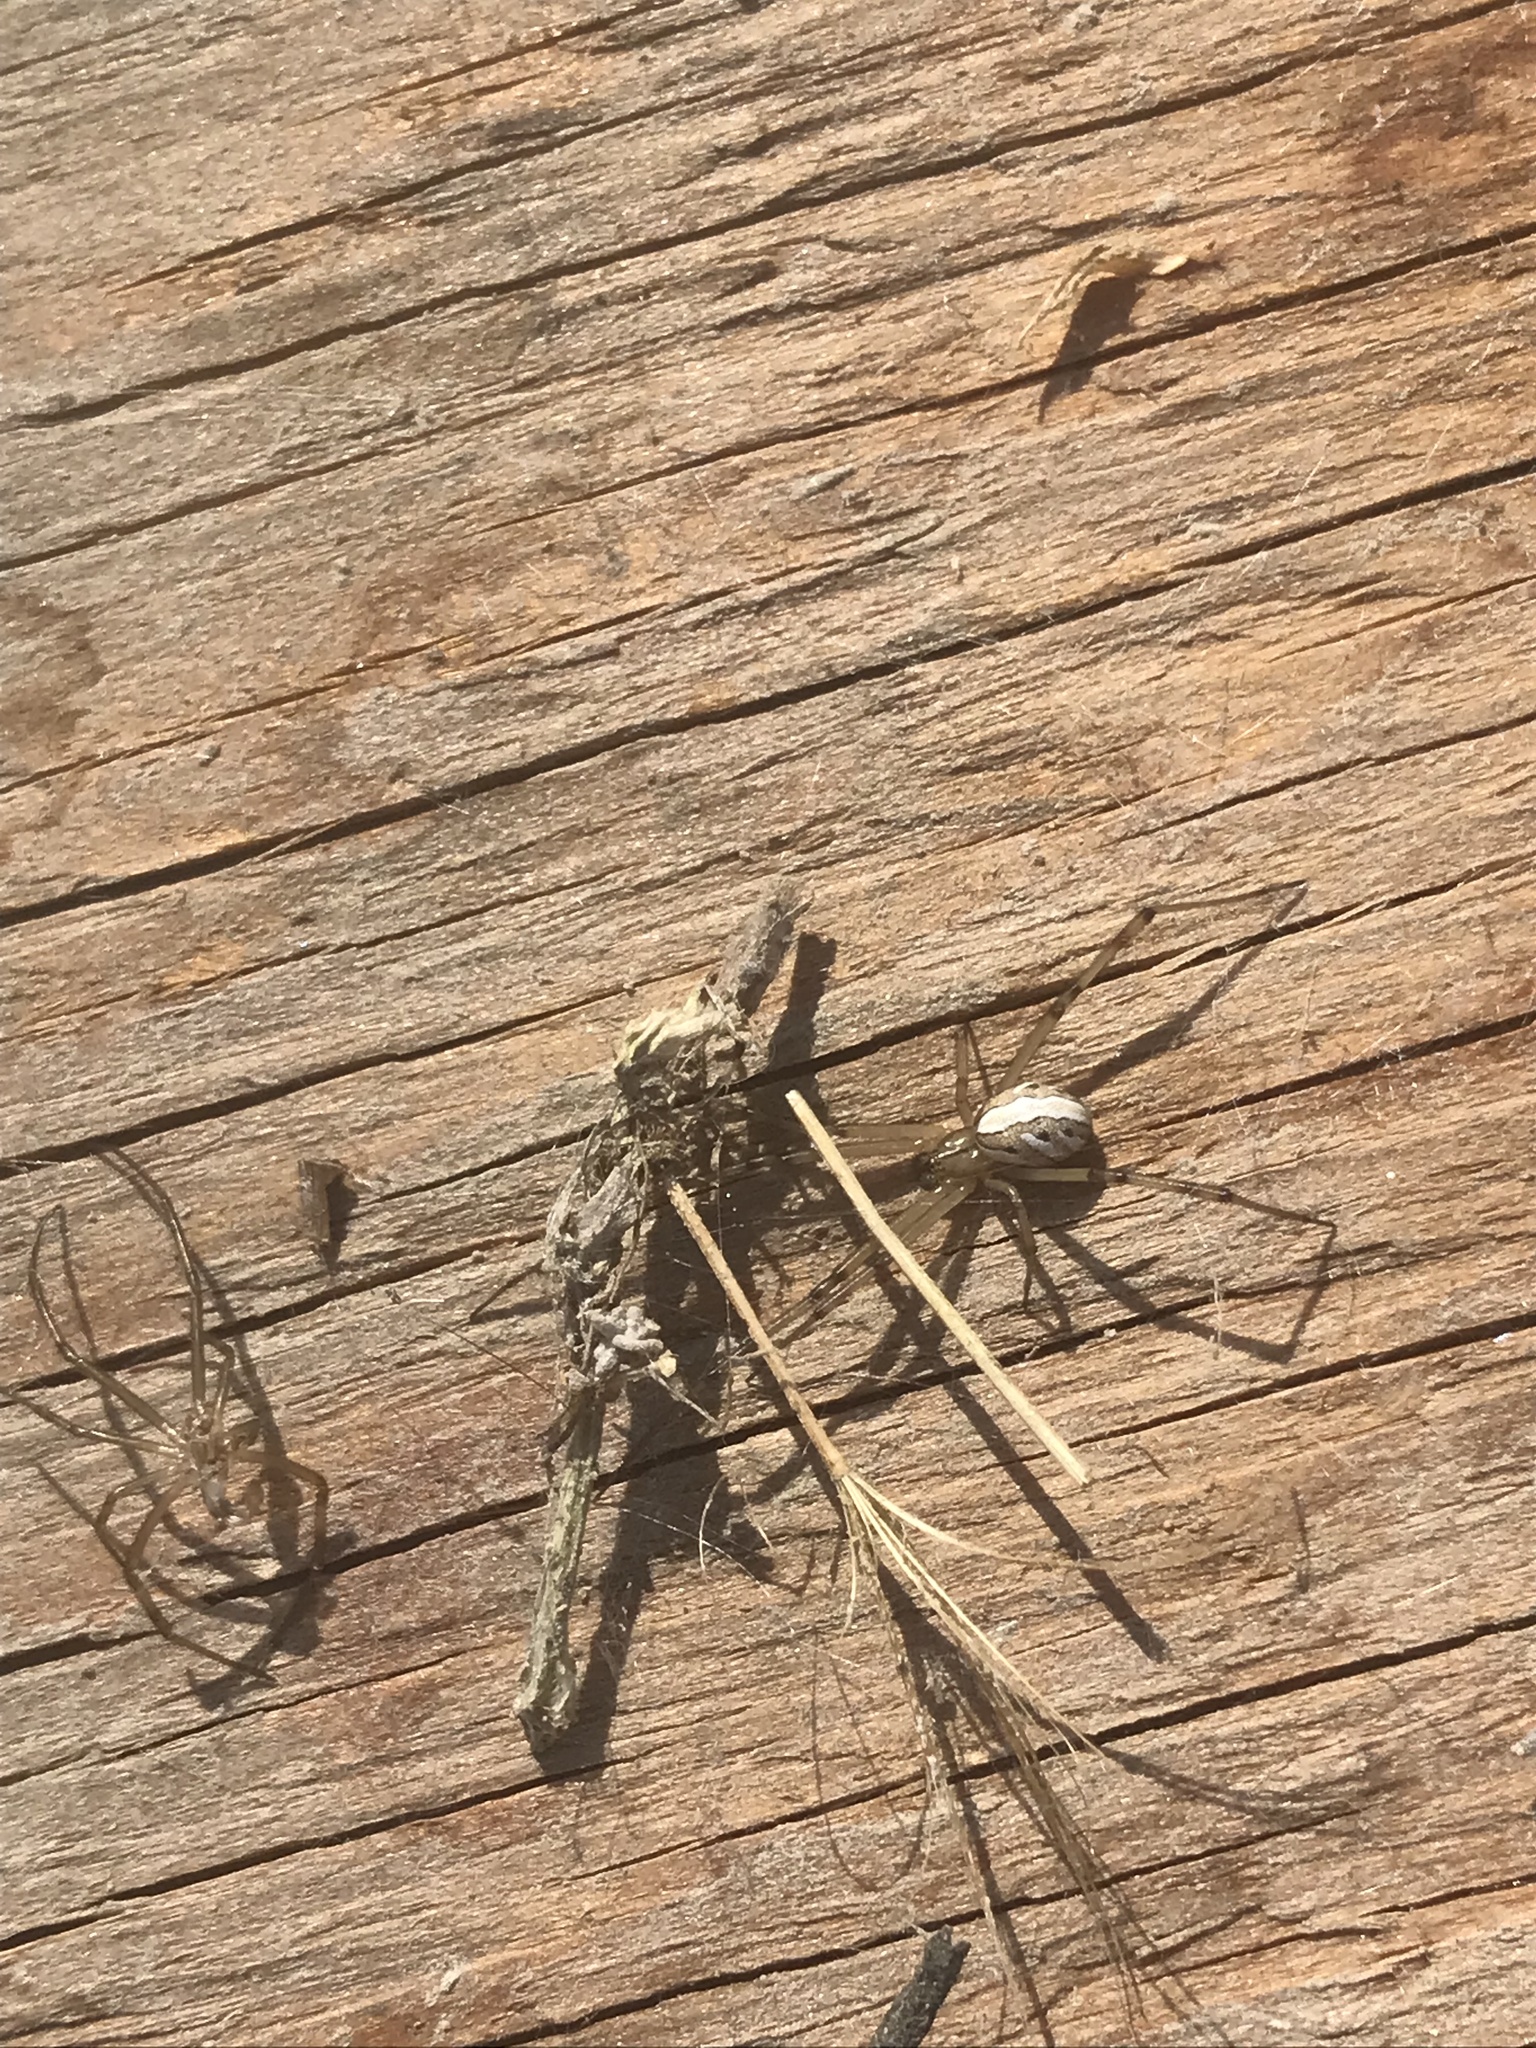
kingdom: Animalia
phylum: Arthropoda
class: Arachnida
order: Araneae
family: Theridiidae
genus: Latrodectus
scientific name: Latrodectus hesperus
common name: Western black widow
